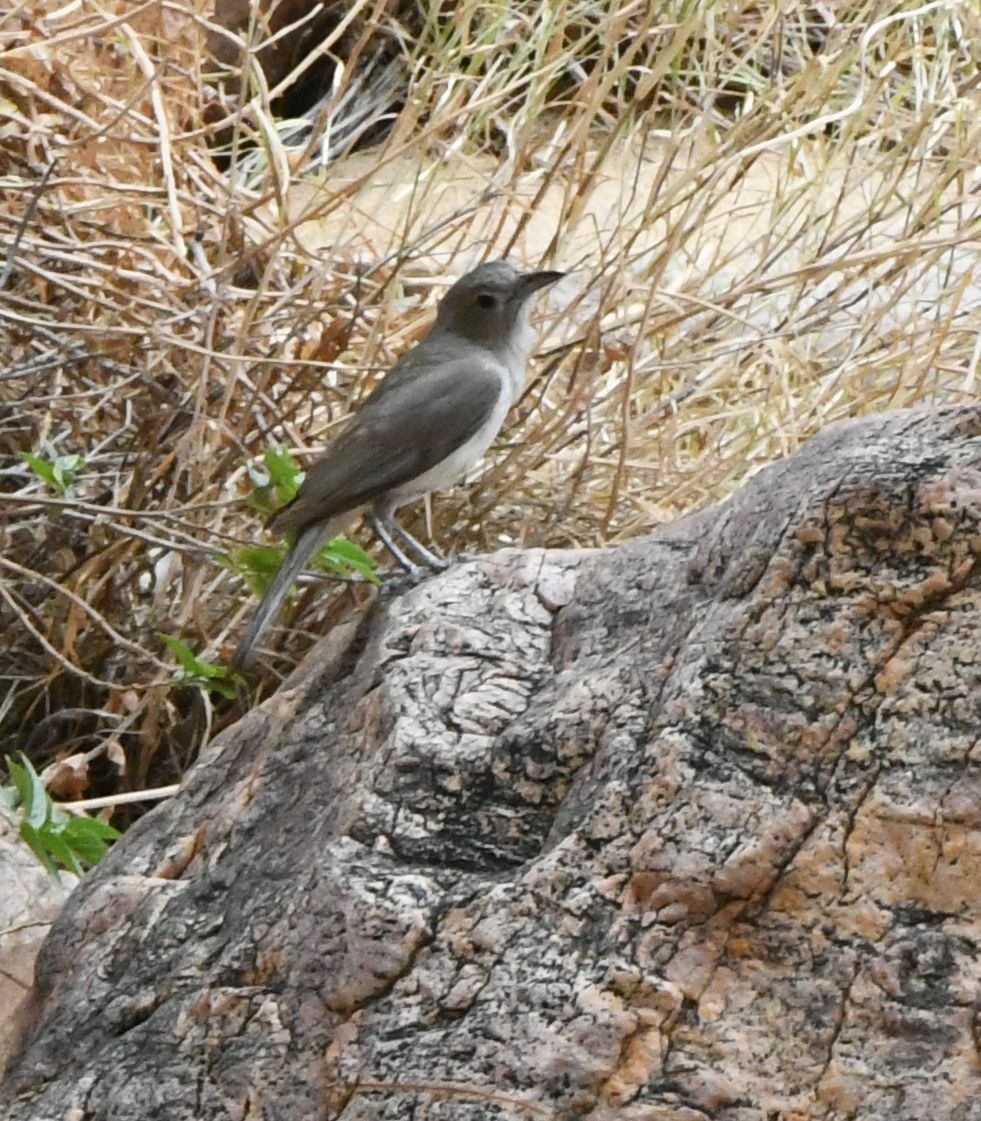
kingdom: Animalia
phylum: Chordata
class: Aves
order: Passeriformes
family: Pachycephalidae
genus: Colluricincla
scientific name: Colluricincla harmonica
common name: Grey shrikethrush
